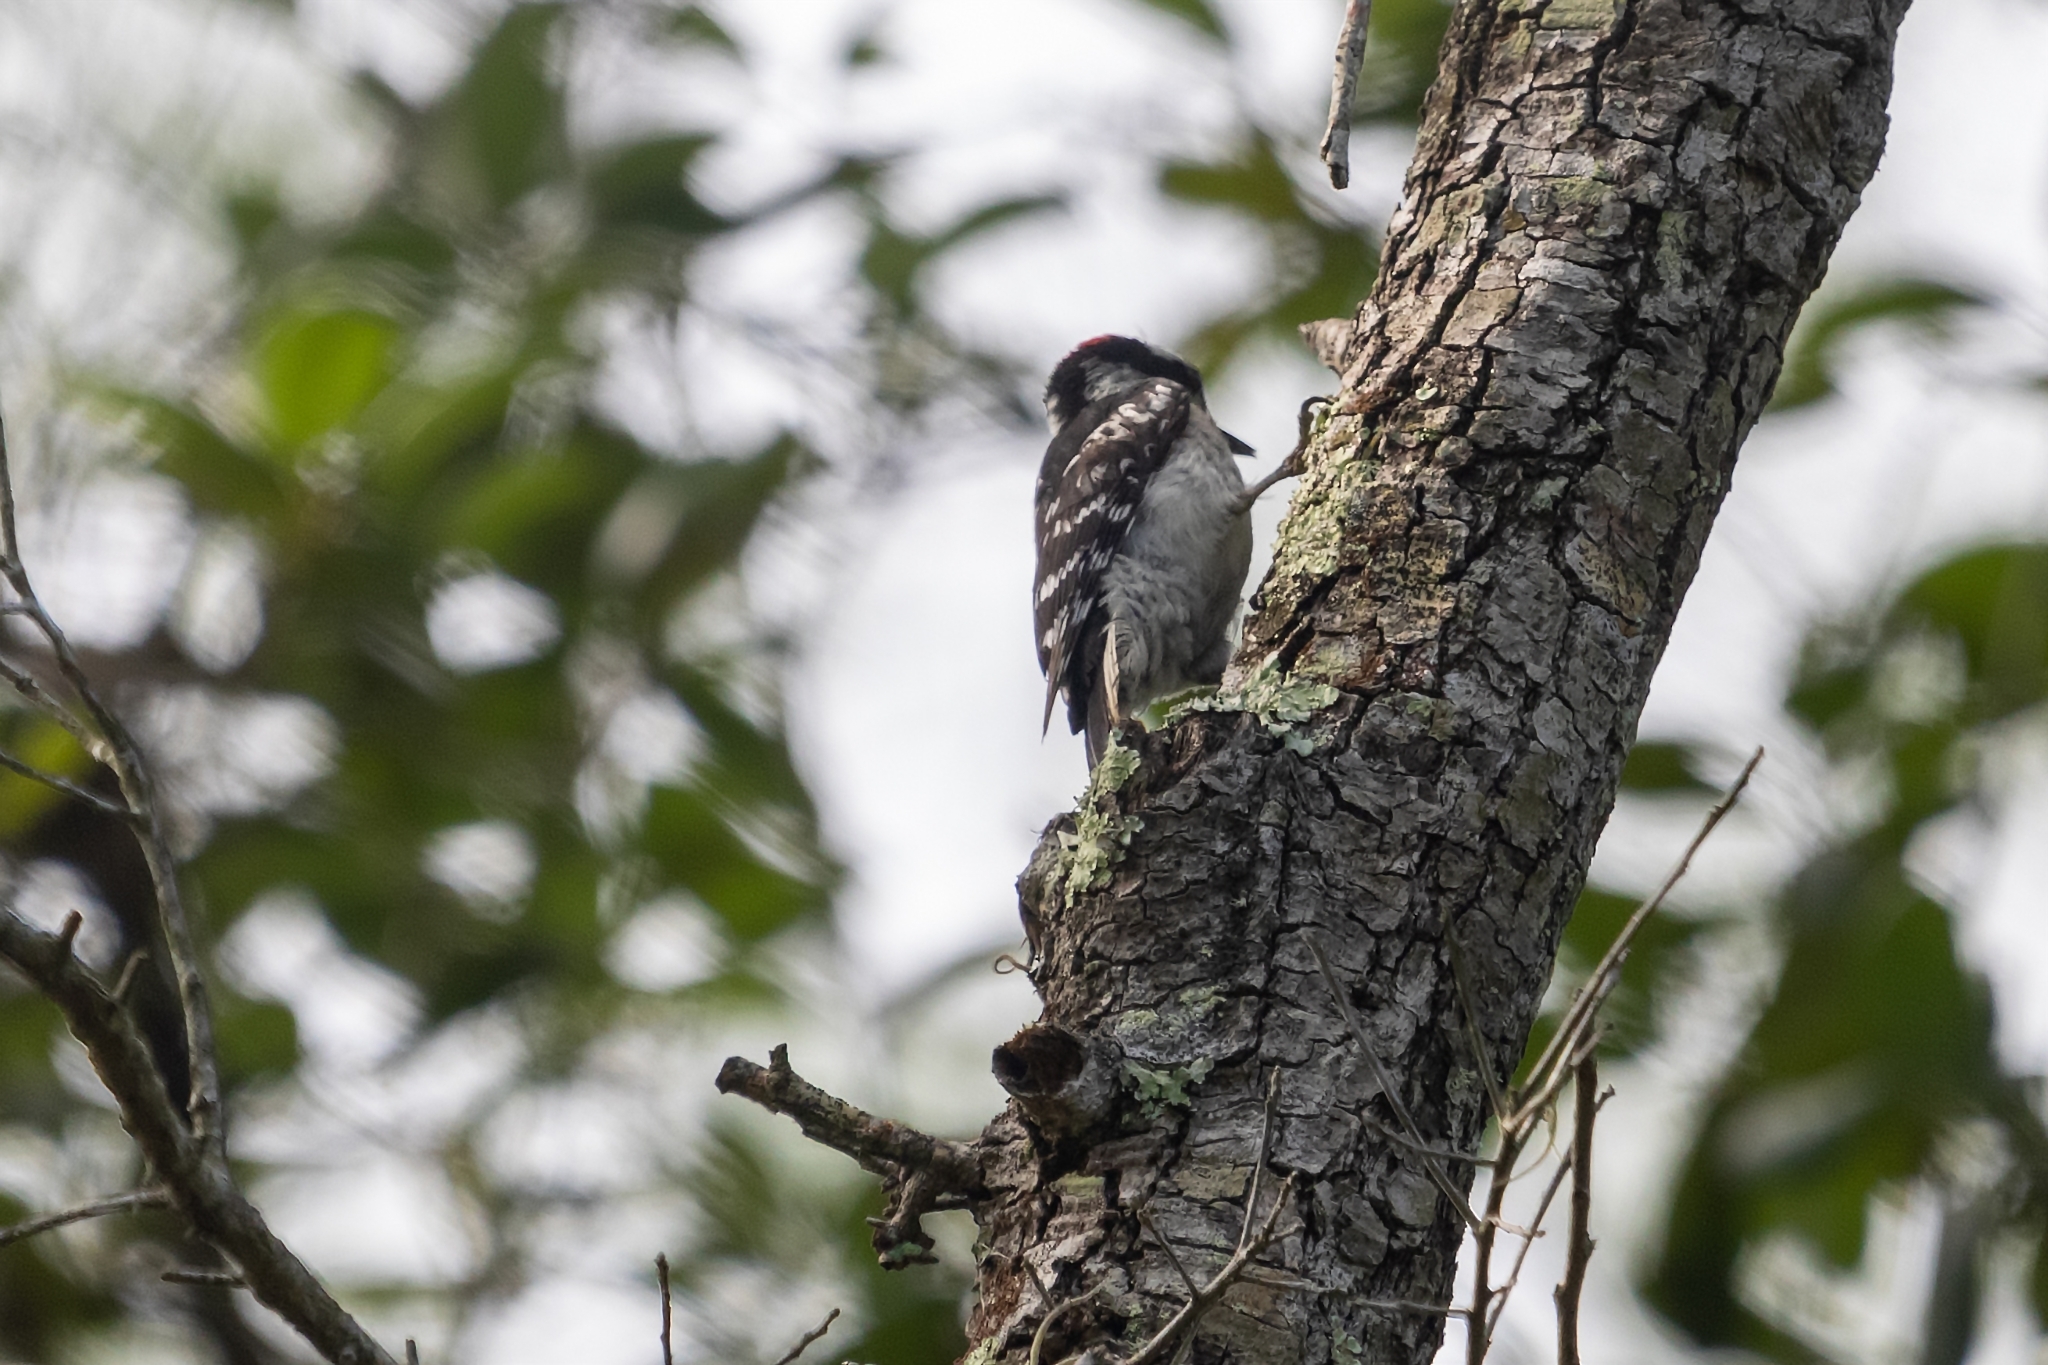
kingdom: Animalia
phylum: Chordata
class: Aves
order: Piciformes
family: Picidae
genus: Dryobates
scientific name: Dryobates pubescens
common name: Downy woodpecker
